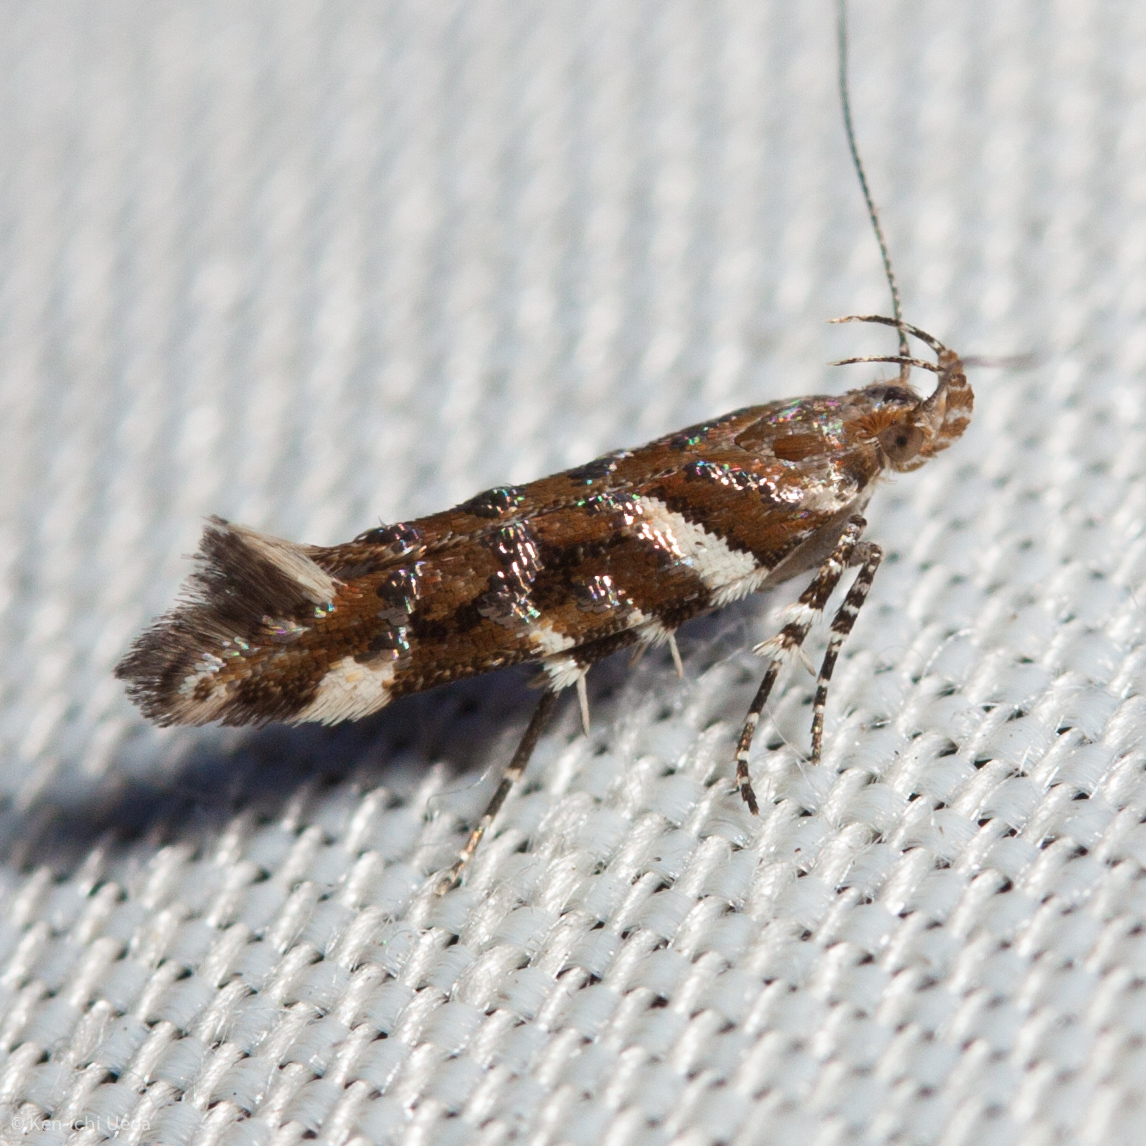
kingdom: Animalia
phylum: Arthropoda
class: Insecta
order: Lepidoptera
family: Gelechiidae
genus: Aristotelia
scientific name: Aristotelia argentifera
